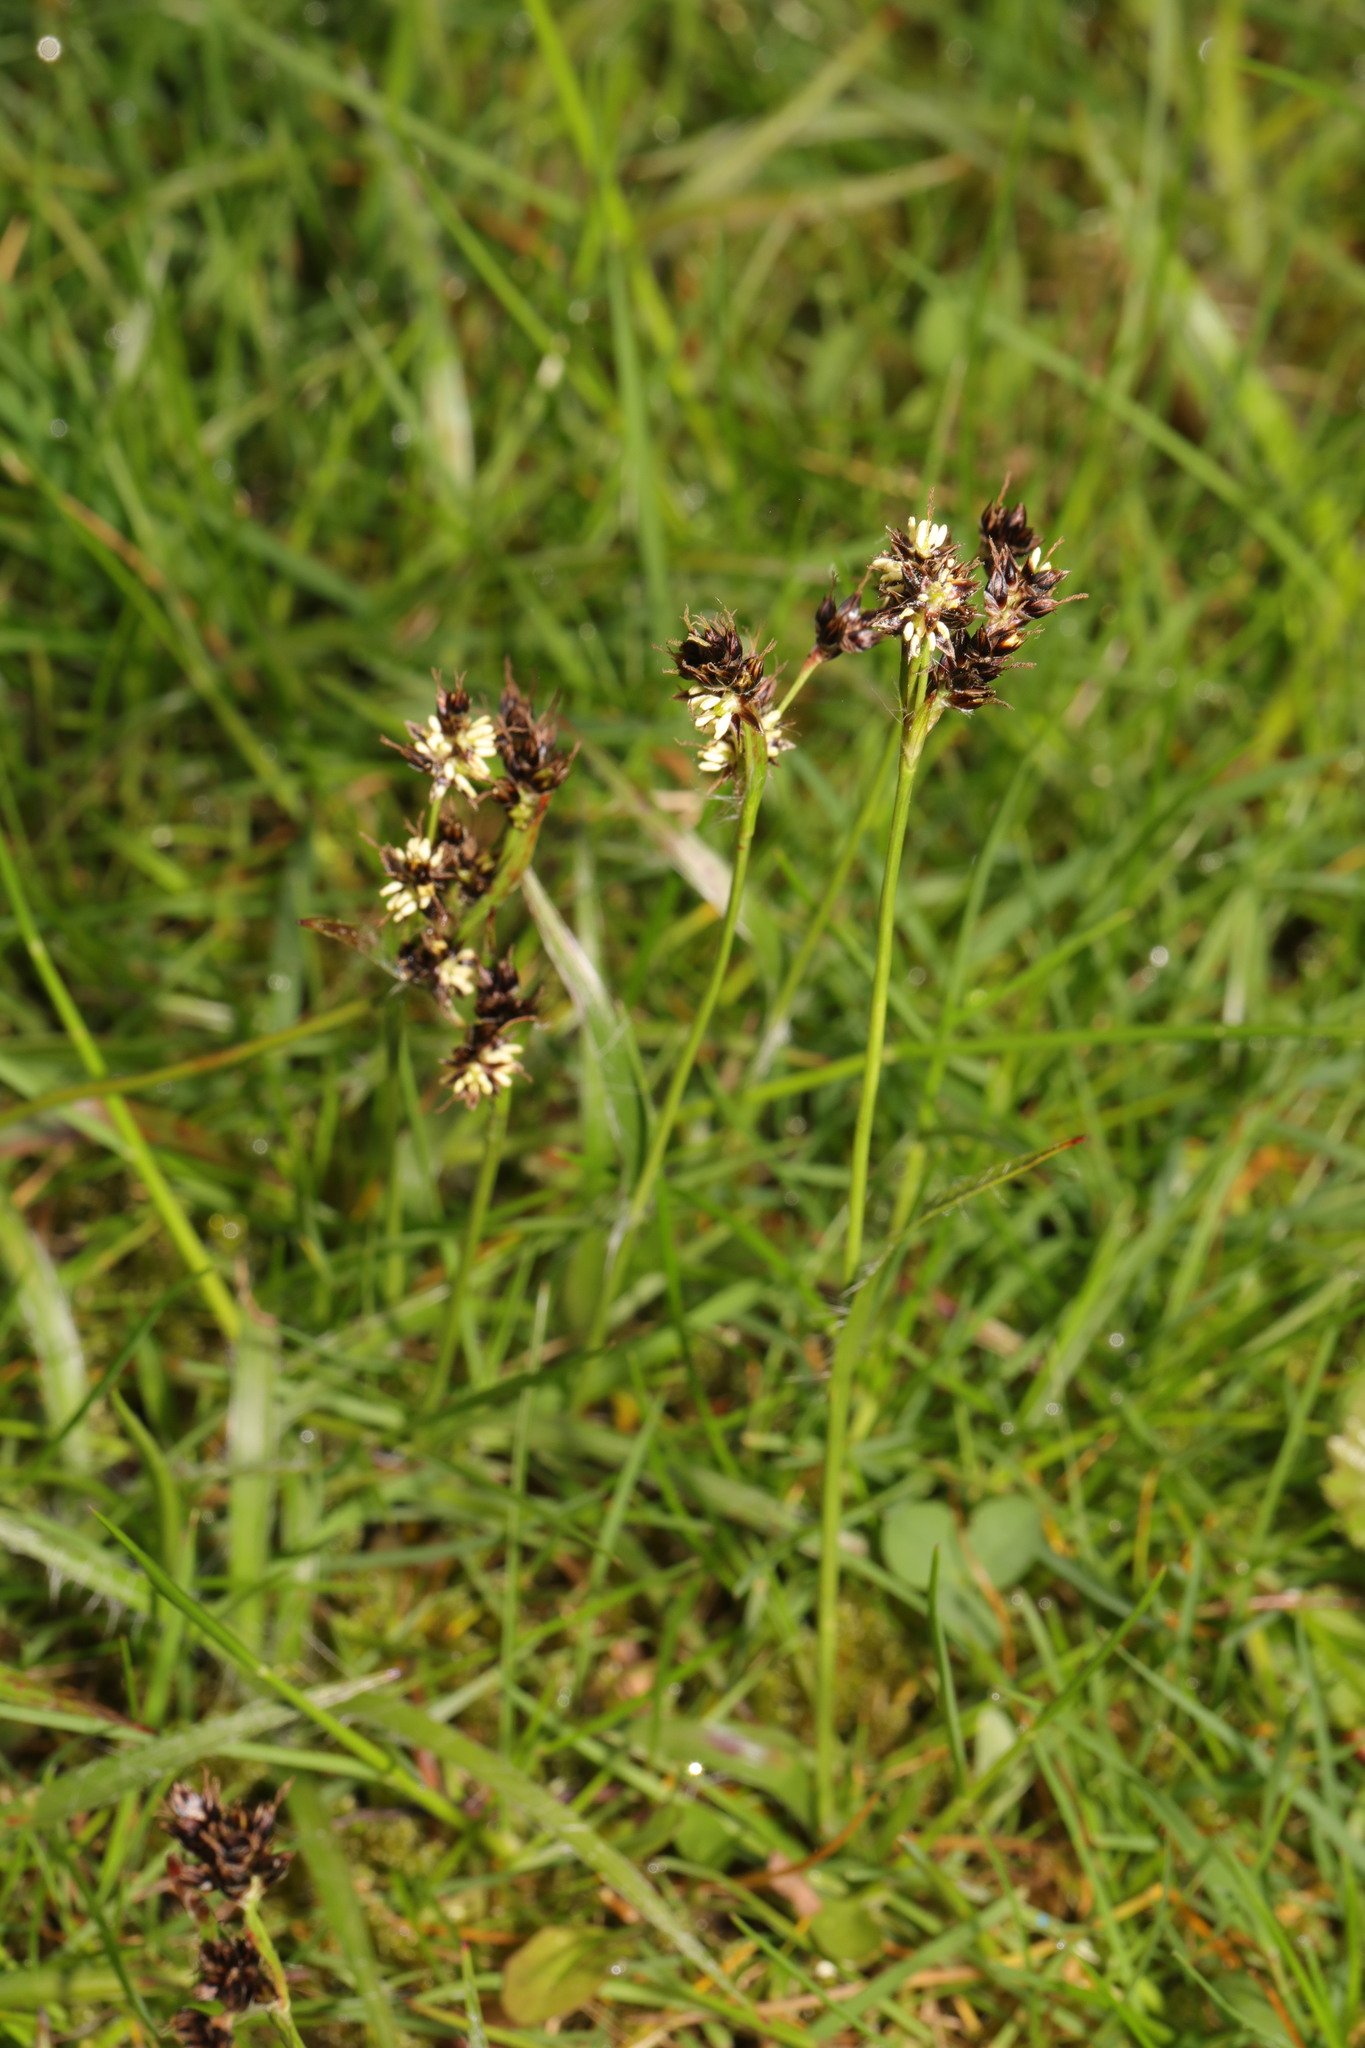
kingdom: Plantae
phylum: Tracheophyta
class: Liliopsida
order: Poales
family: Juncaceae
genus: Luzula
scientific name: Luzula campestris
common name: Field wood-rush
